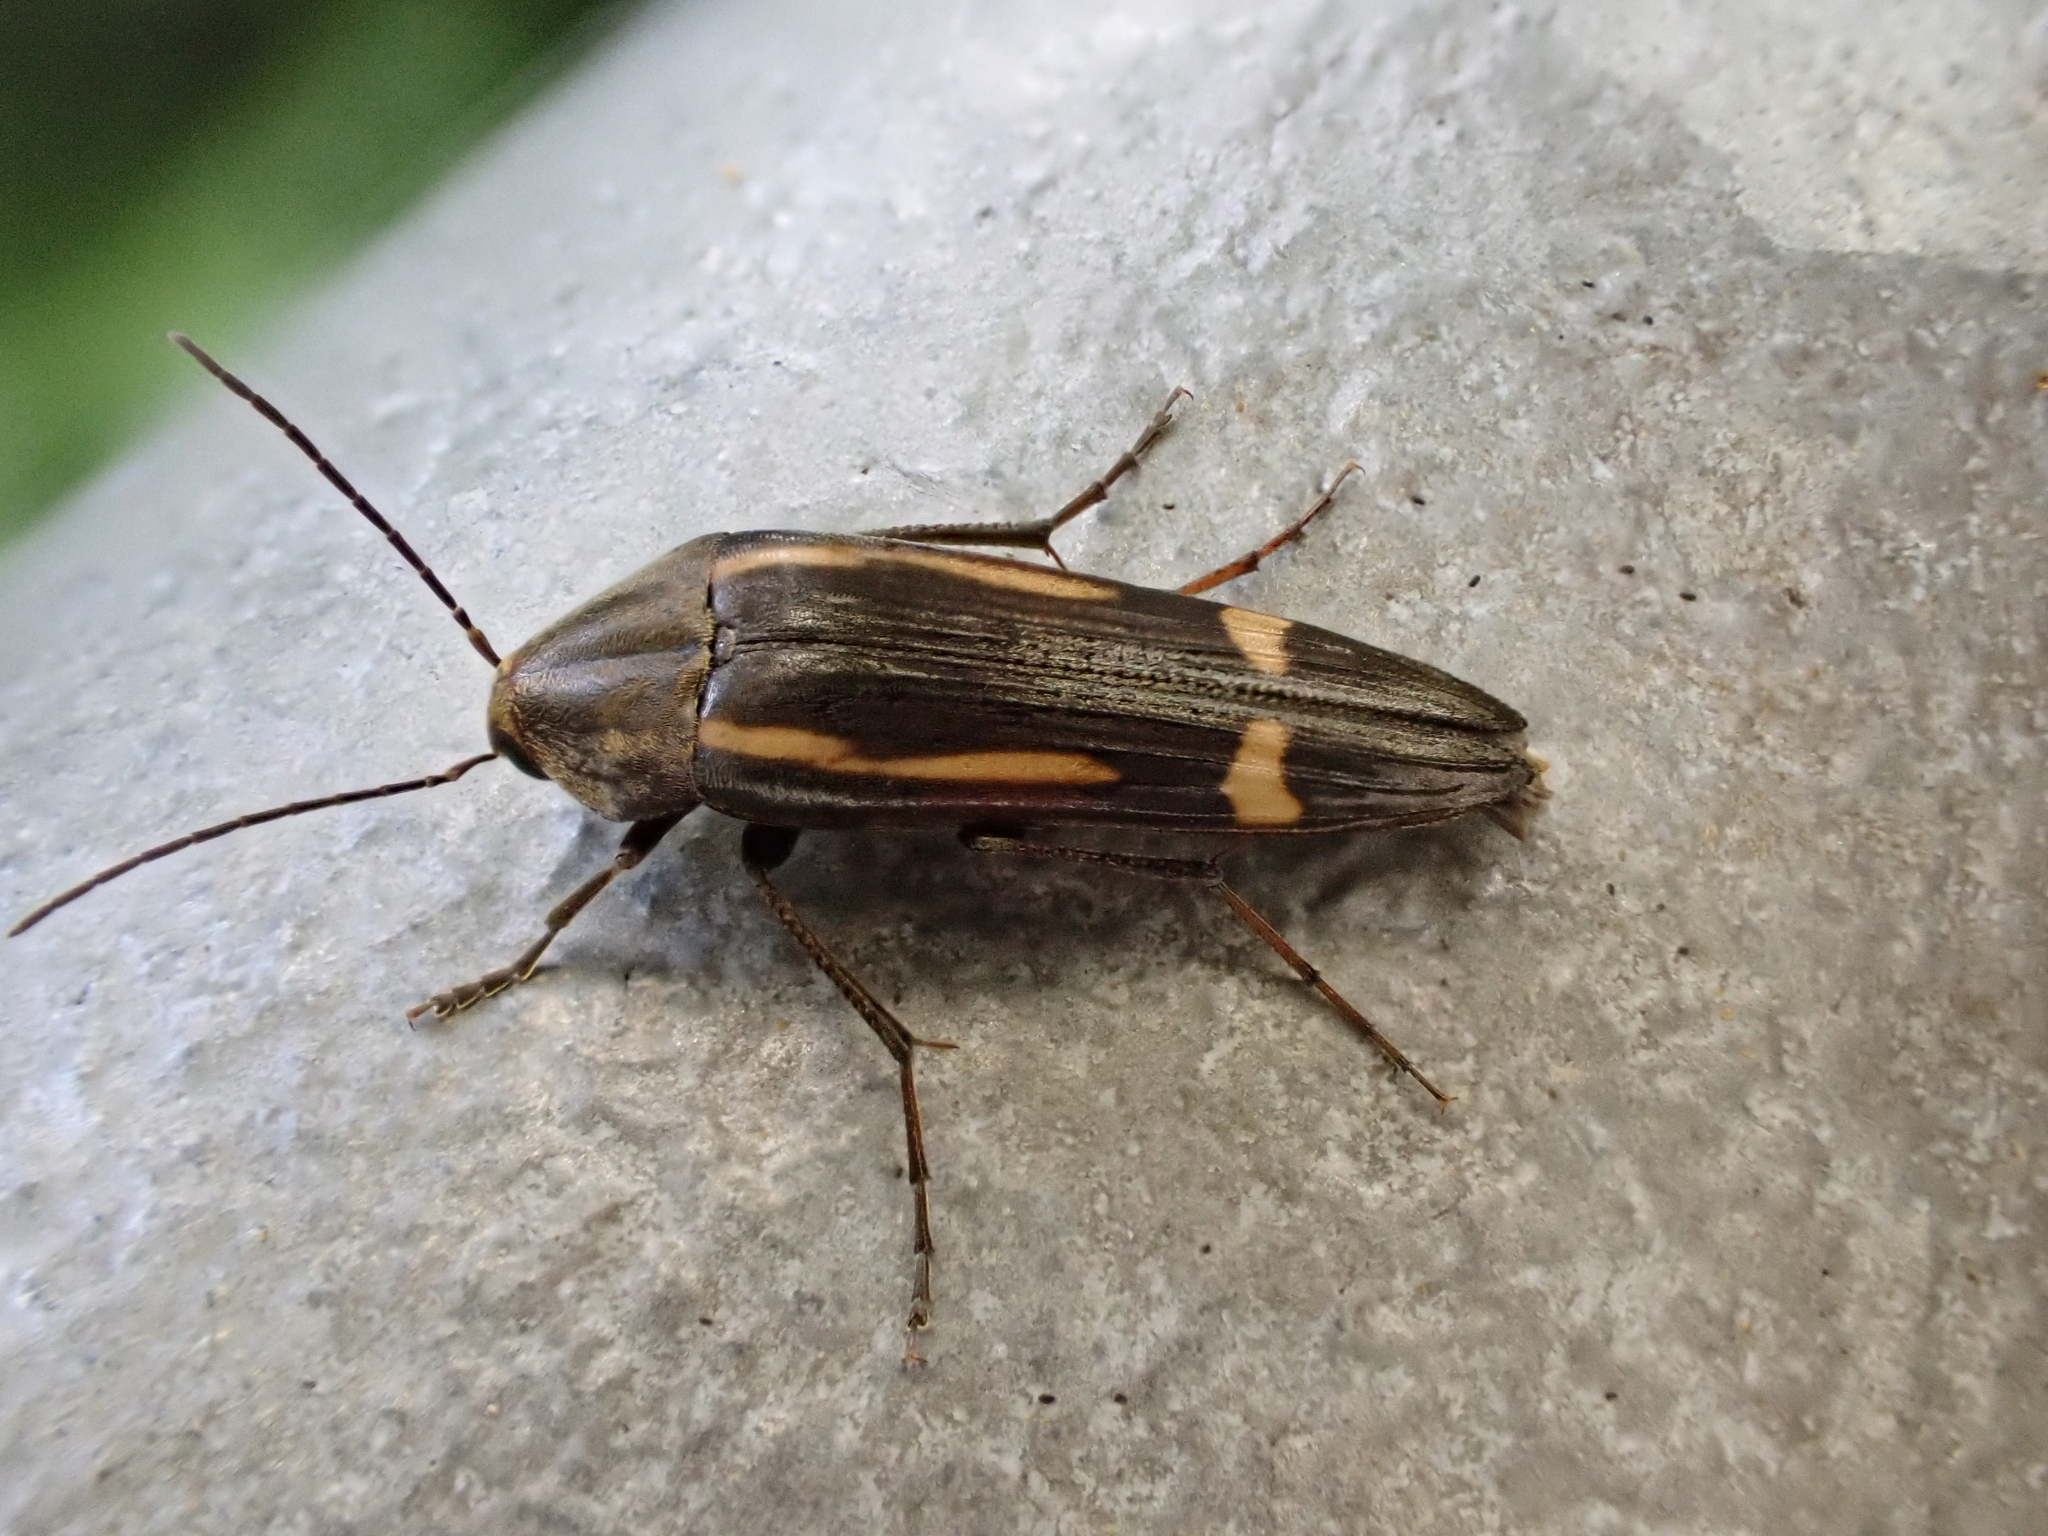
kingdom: Animalia
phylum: Arthropoda
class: Insecta
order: Coleoptera
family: Melandryidae
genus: Ctenoplectron
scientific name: Ctenoplectron
